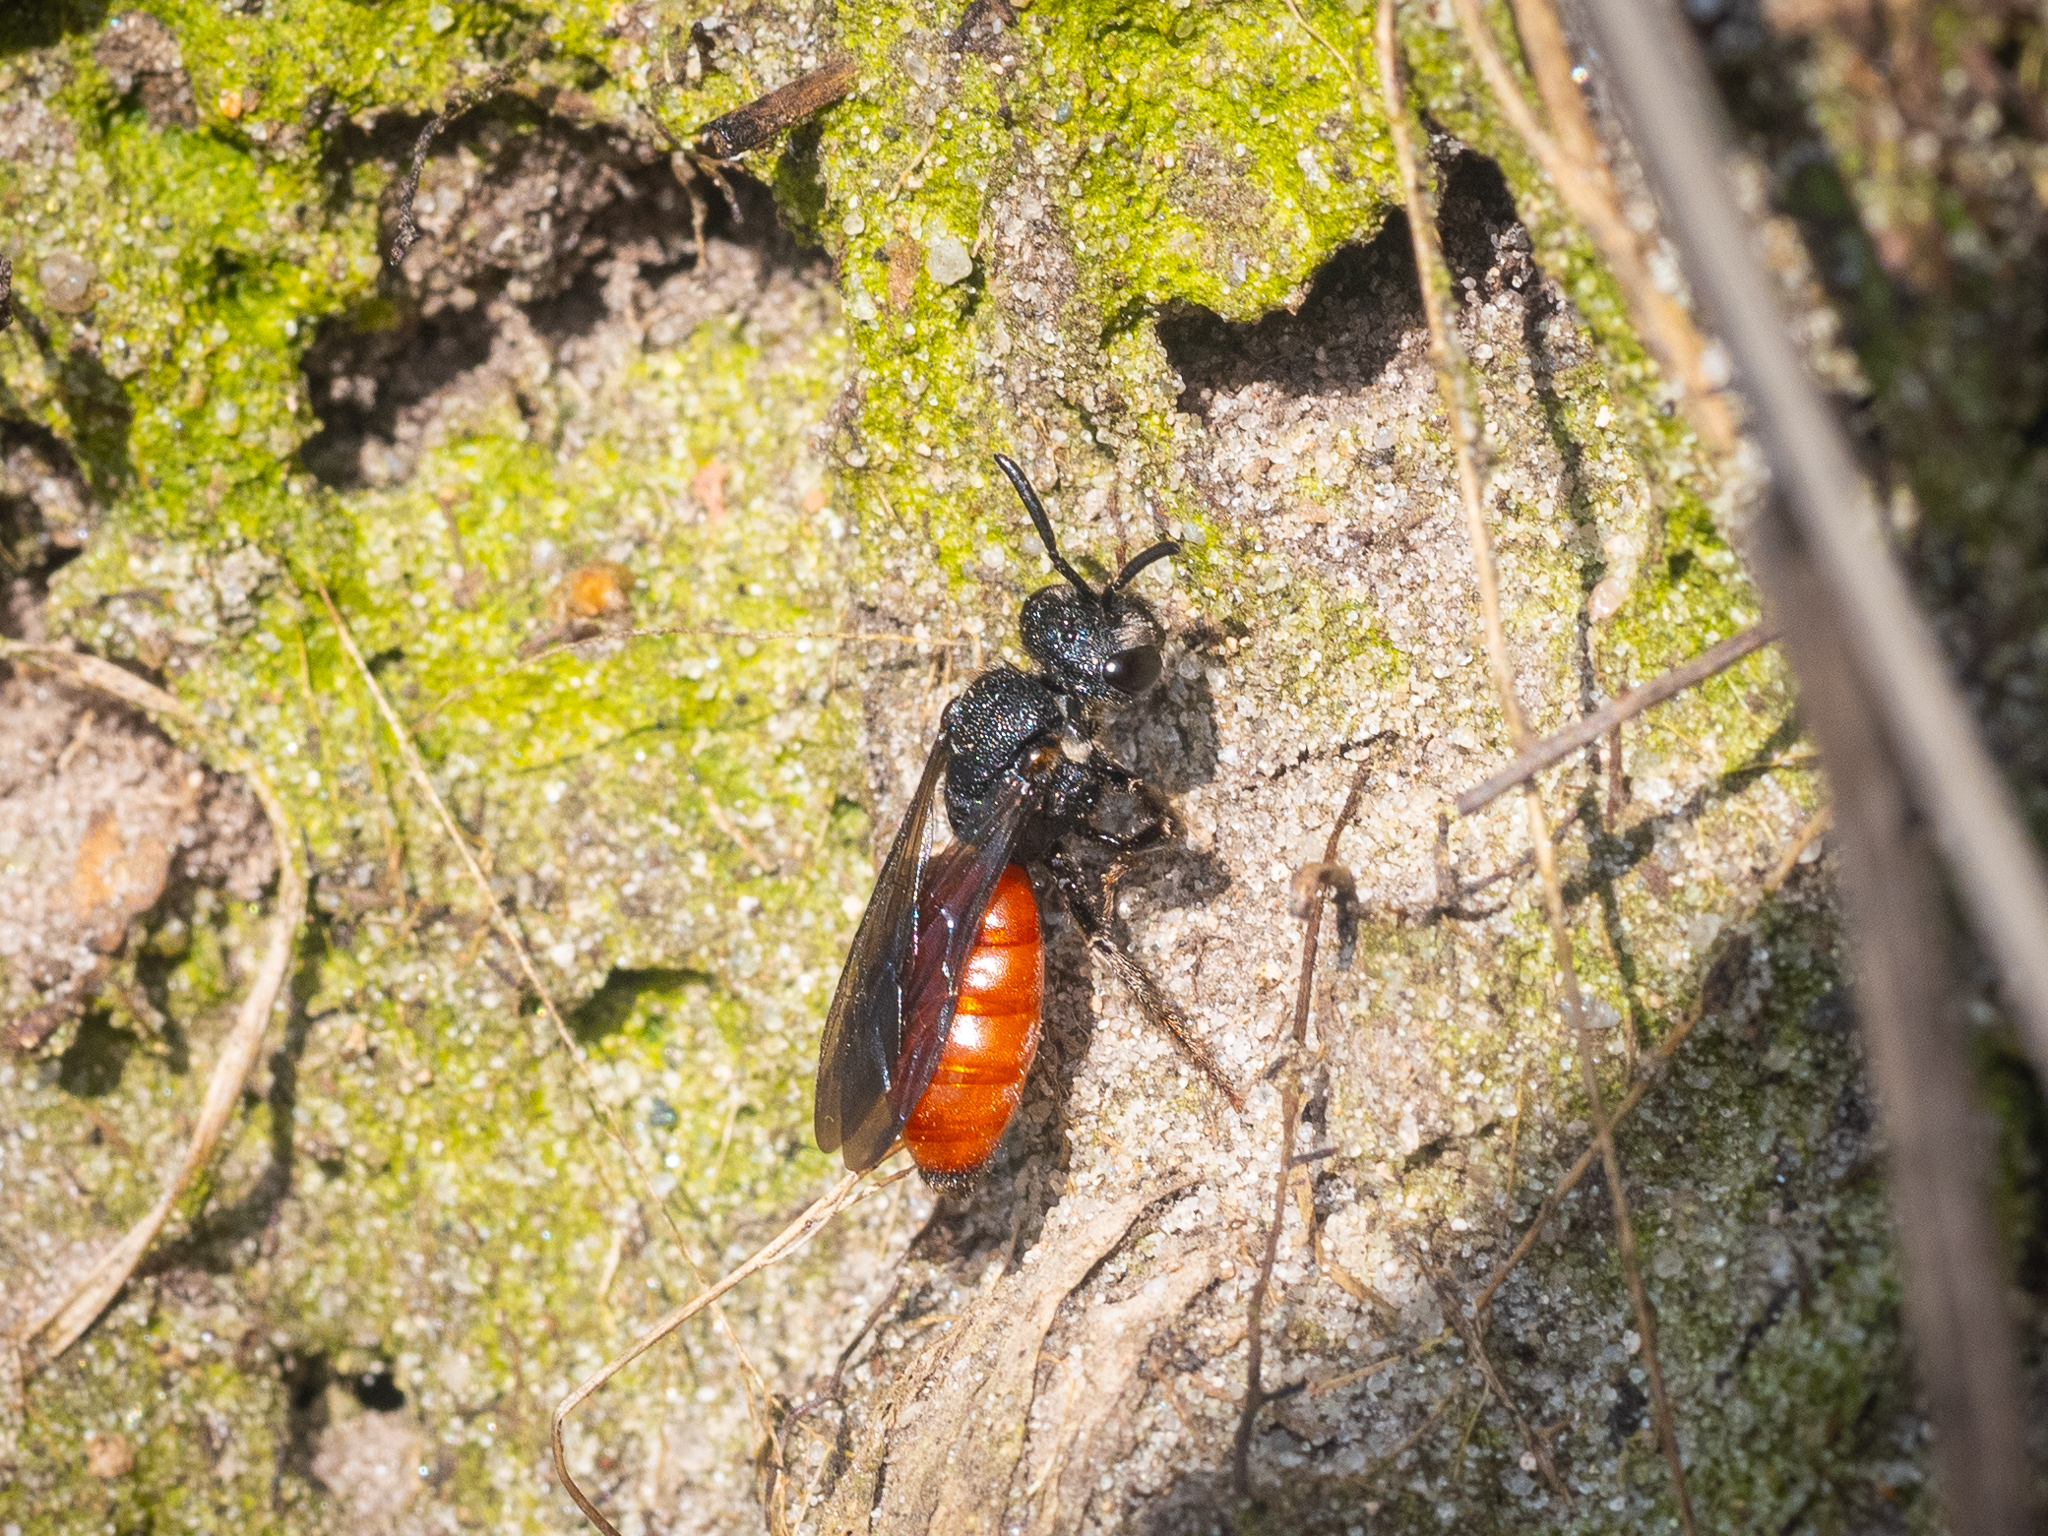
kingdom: Animalia
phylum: Arthropoda
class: Insecta
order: Hymenoptera
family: Halictidae
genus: Sphecodes
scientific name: Sphecodes albilabris
